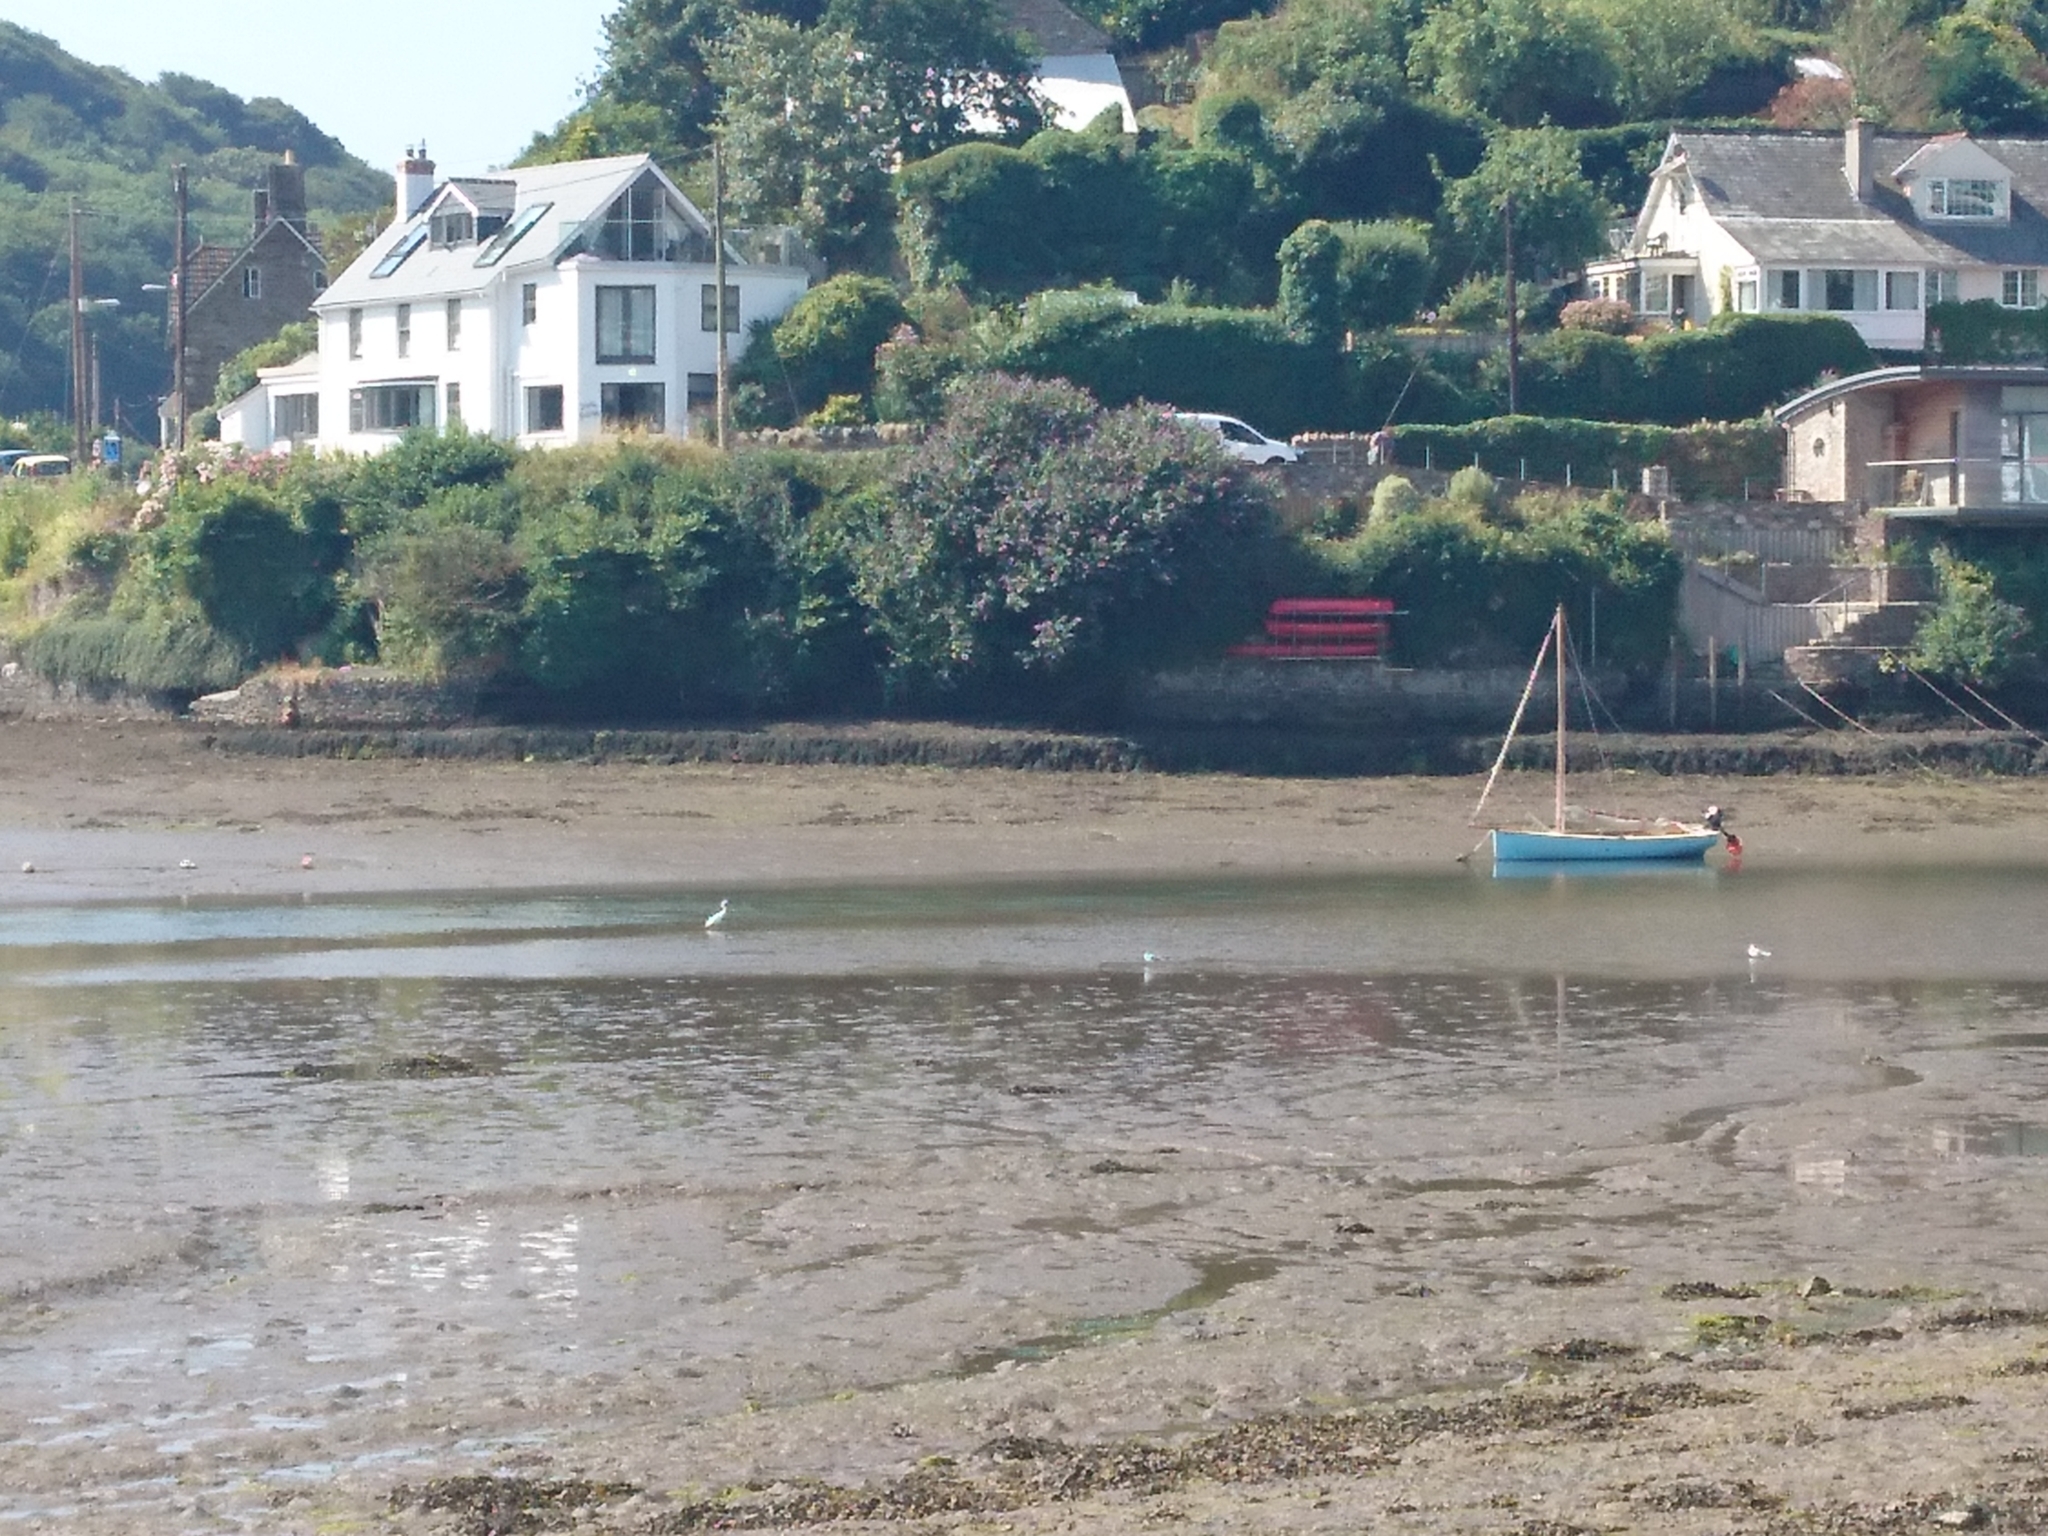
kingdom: Animalia
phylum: Chordata
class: Aves
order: Pelecaniformes
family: Ardeidae
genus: Egretta
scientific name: Egretta garzetta
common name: Little egret
